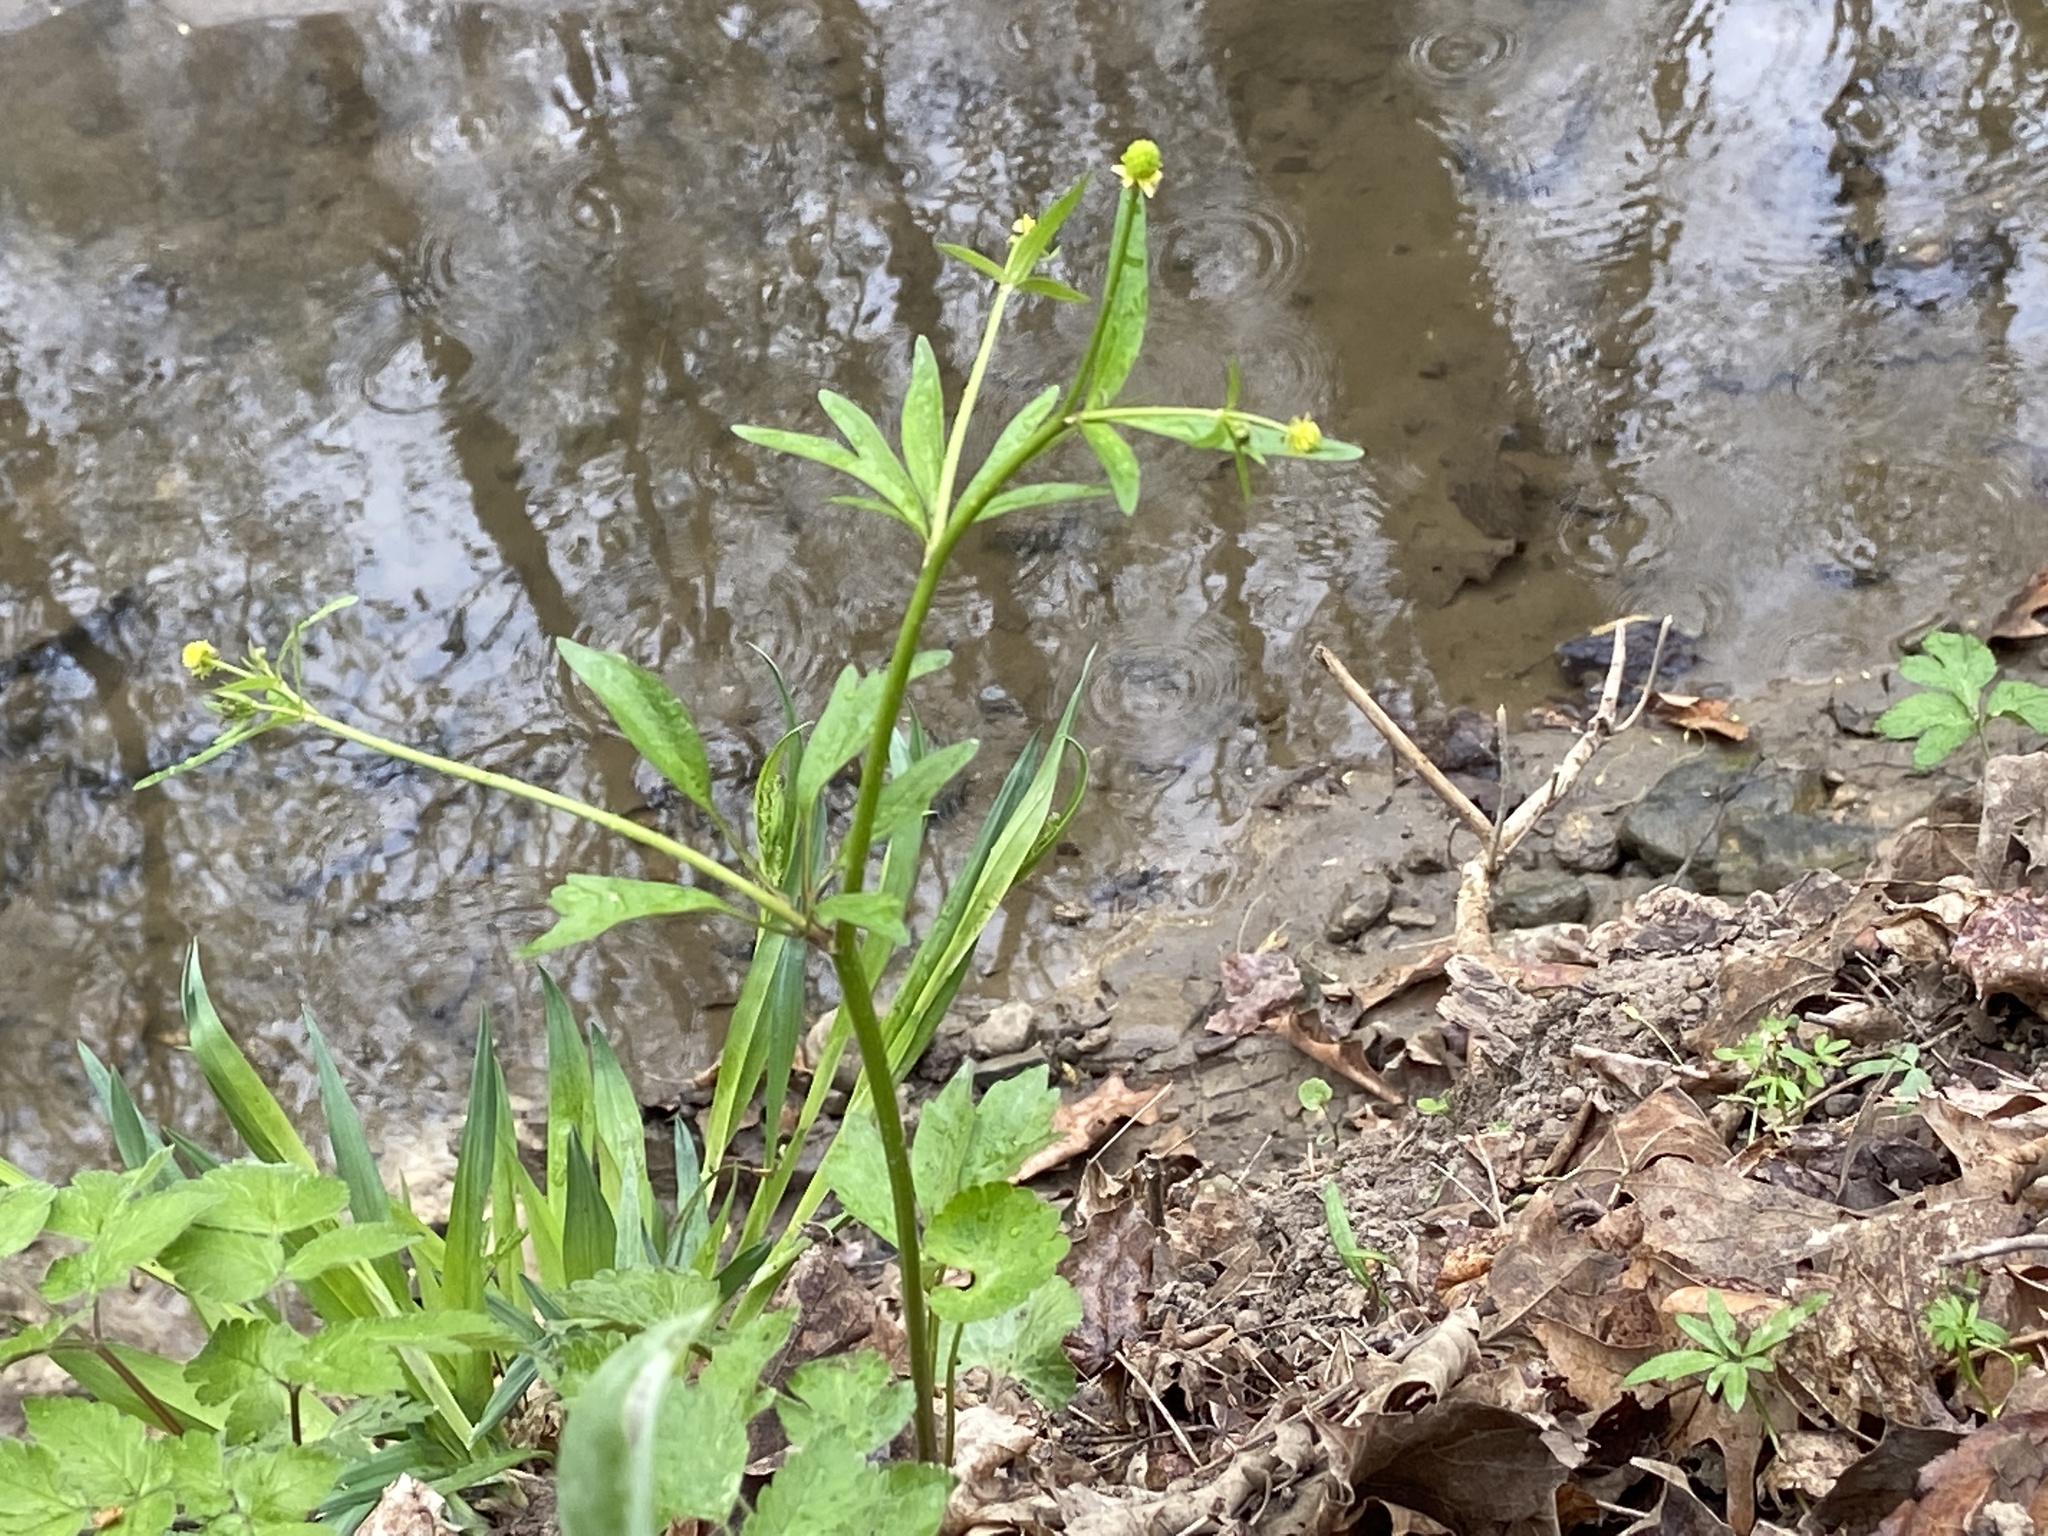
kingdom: Plantae
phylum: Tracheophyta
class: Magnoliopsida
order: Ranunculales
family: Ranunculaceae
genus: Ranunculus
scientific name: Ranunculus abortivus
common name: Early wood buttercup
